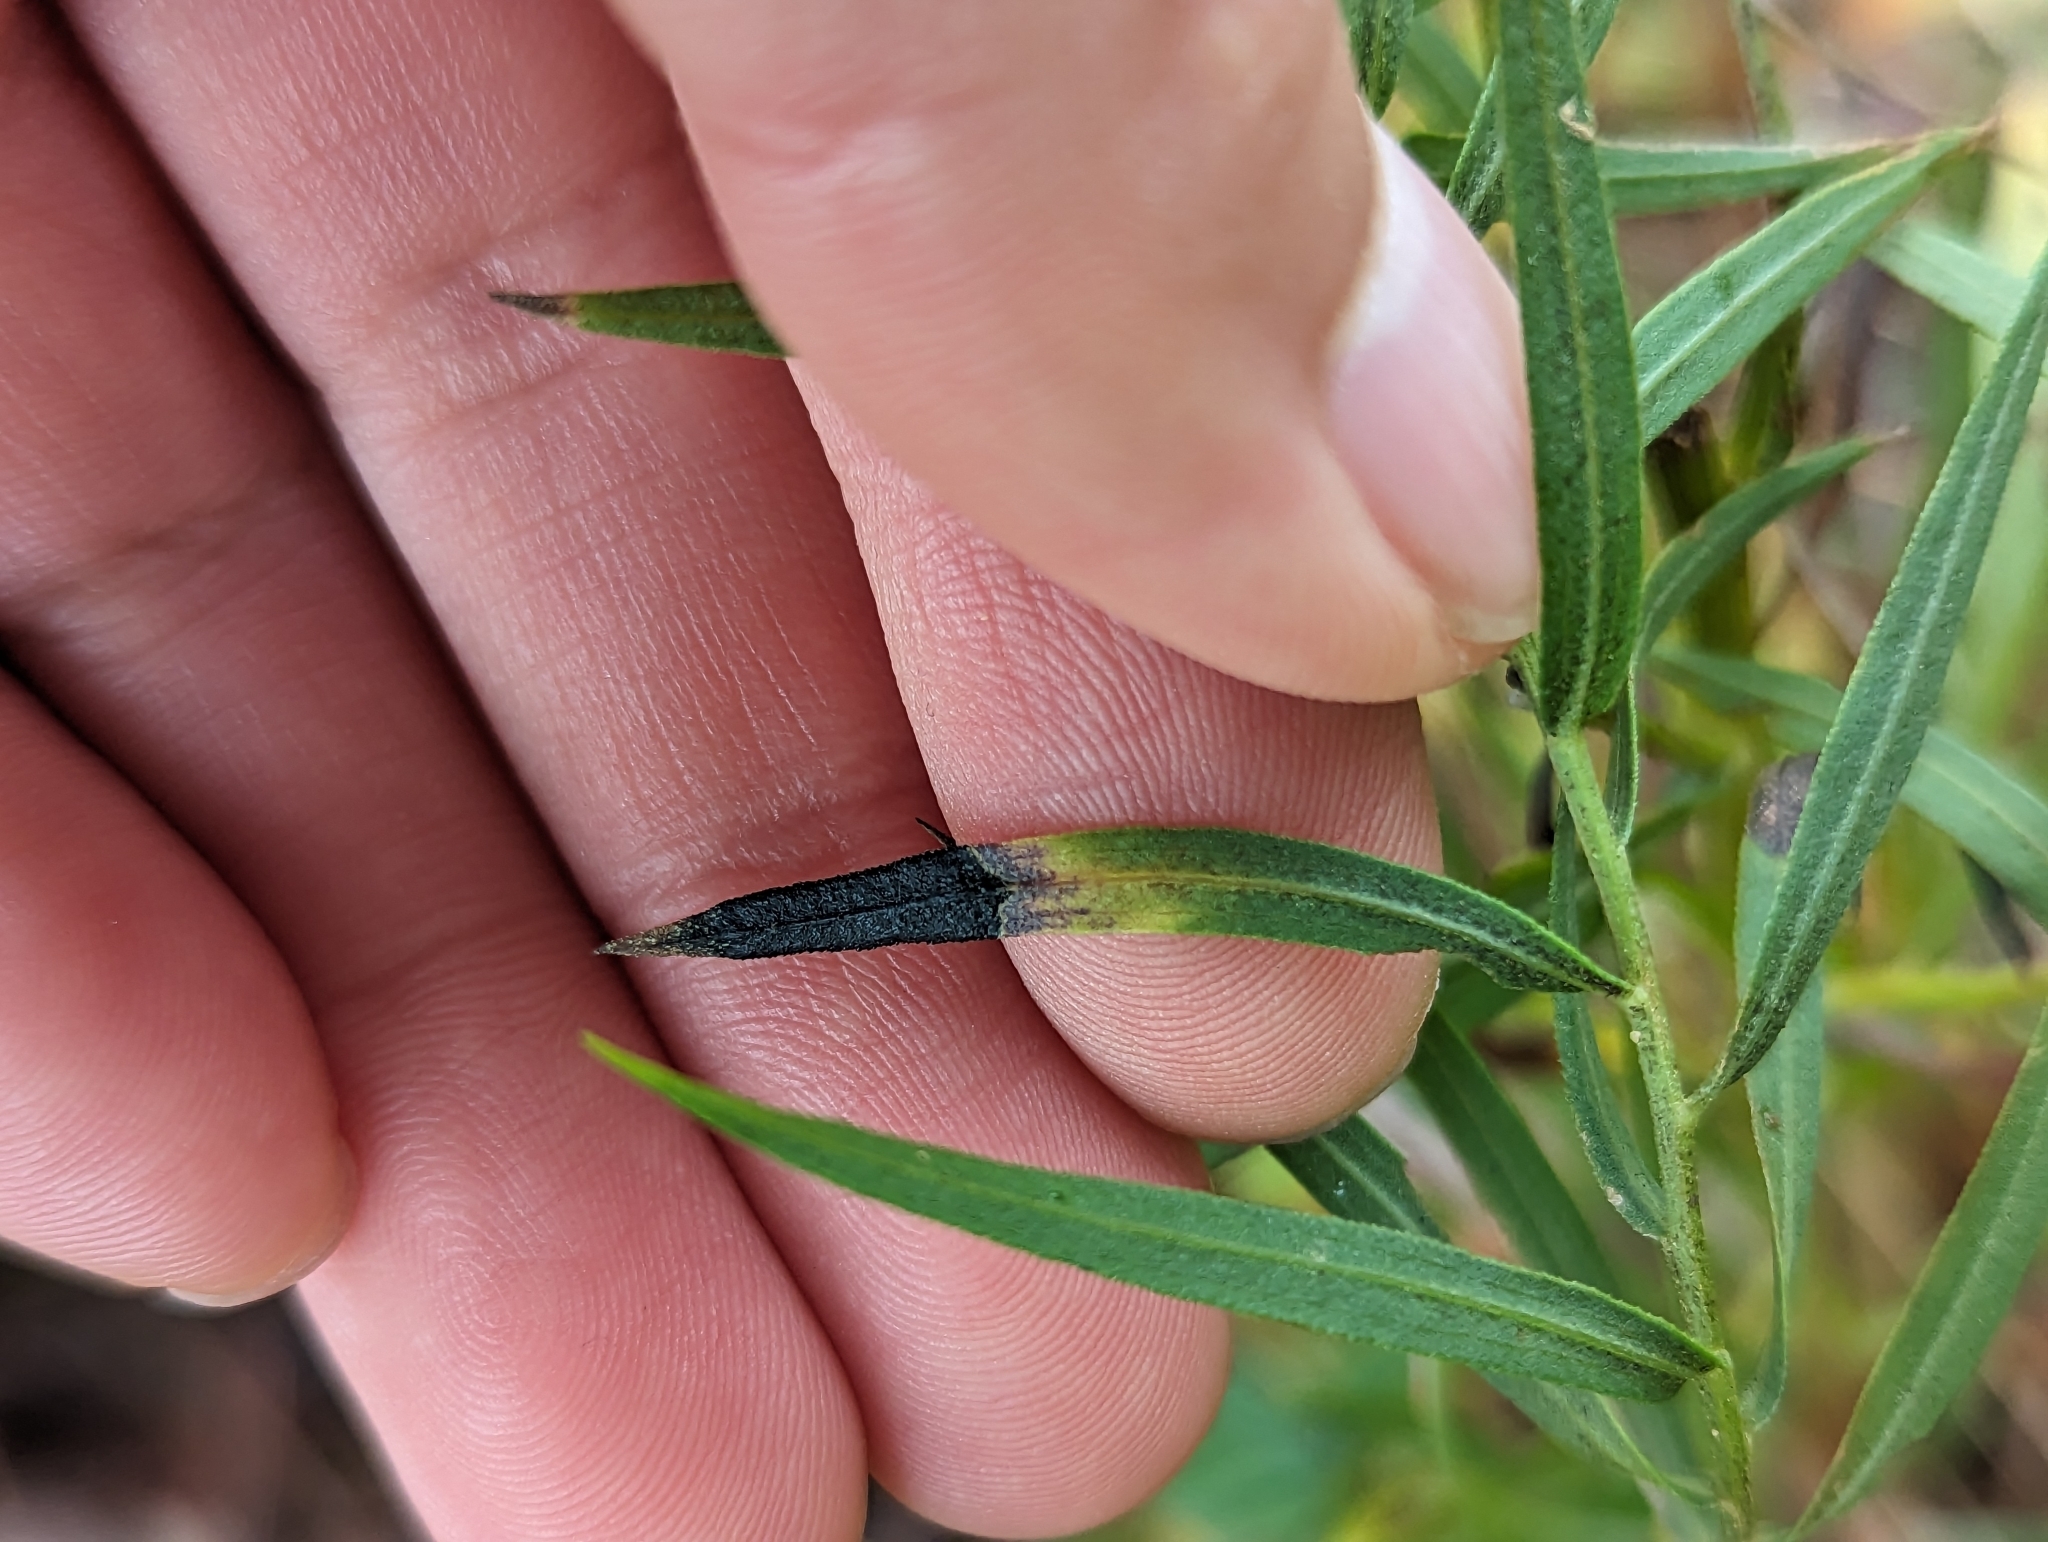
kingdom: Animalia
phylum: Arthropoda
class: Insecta
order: Diptera
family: Cecidomyiidae
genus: Asteromyia
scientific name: Asteromyia euthamiae
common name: Euthamia leaf gall midge
